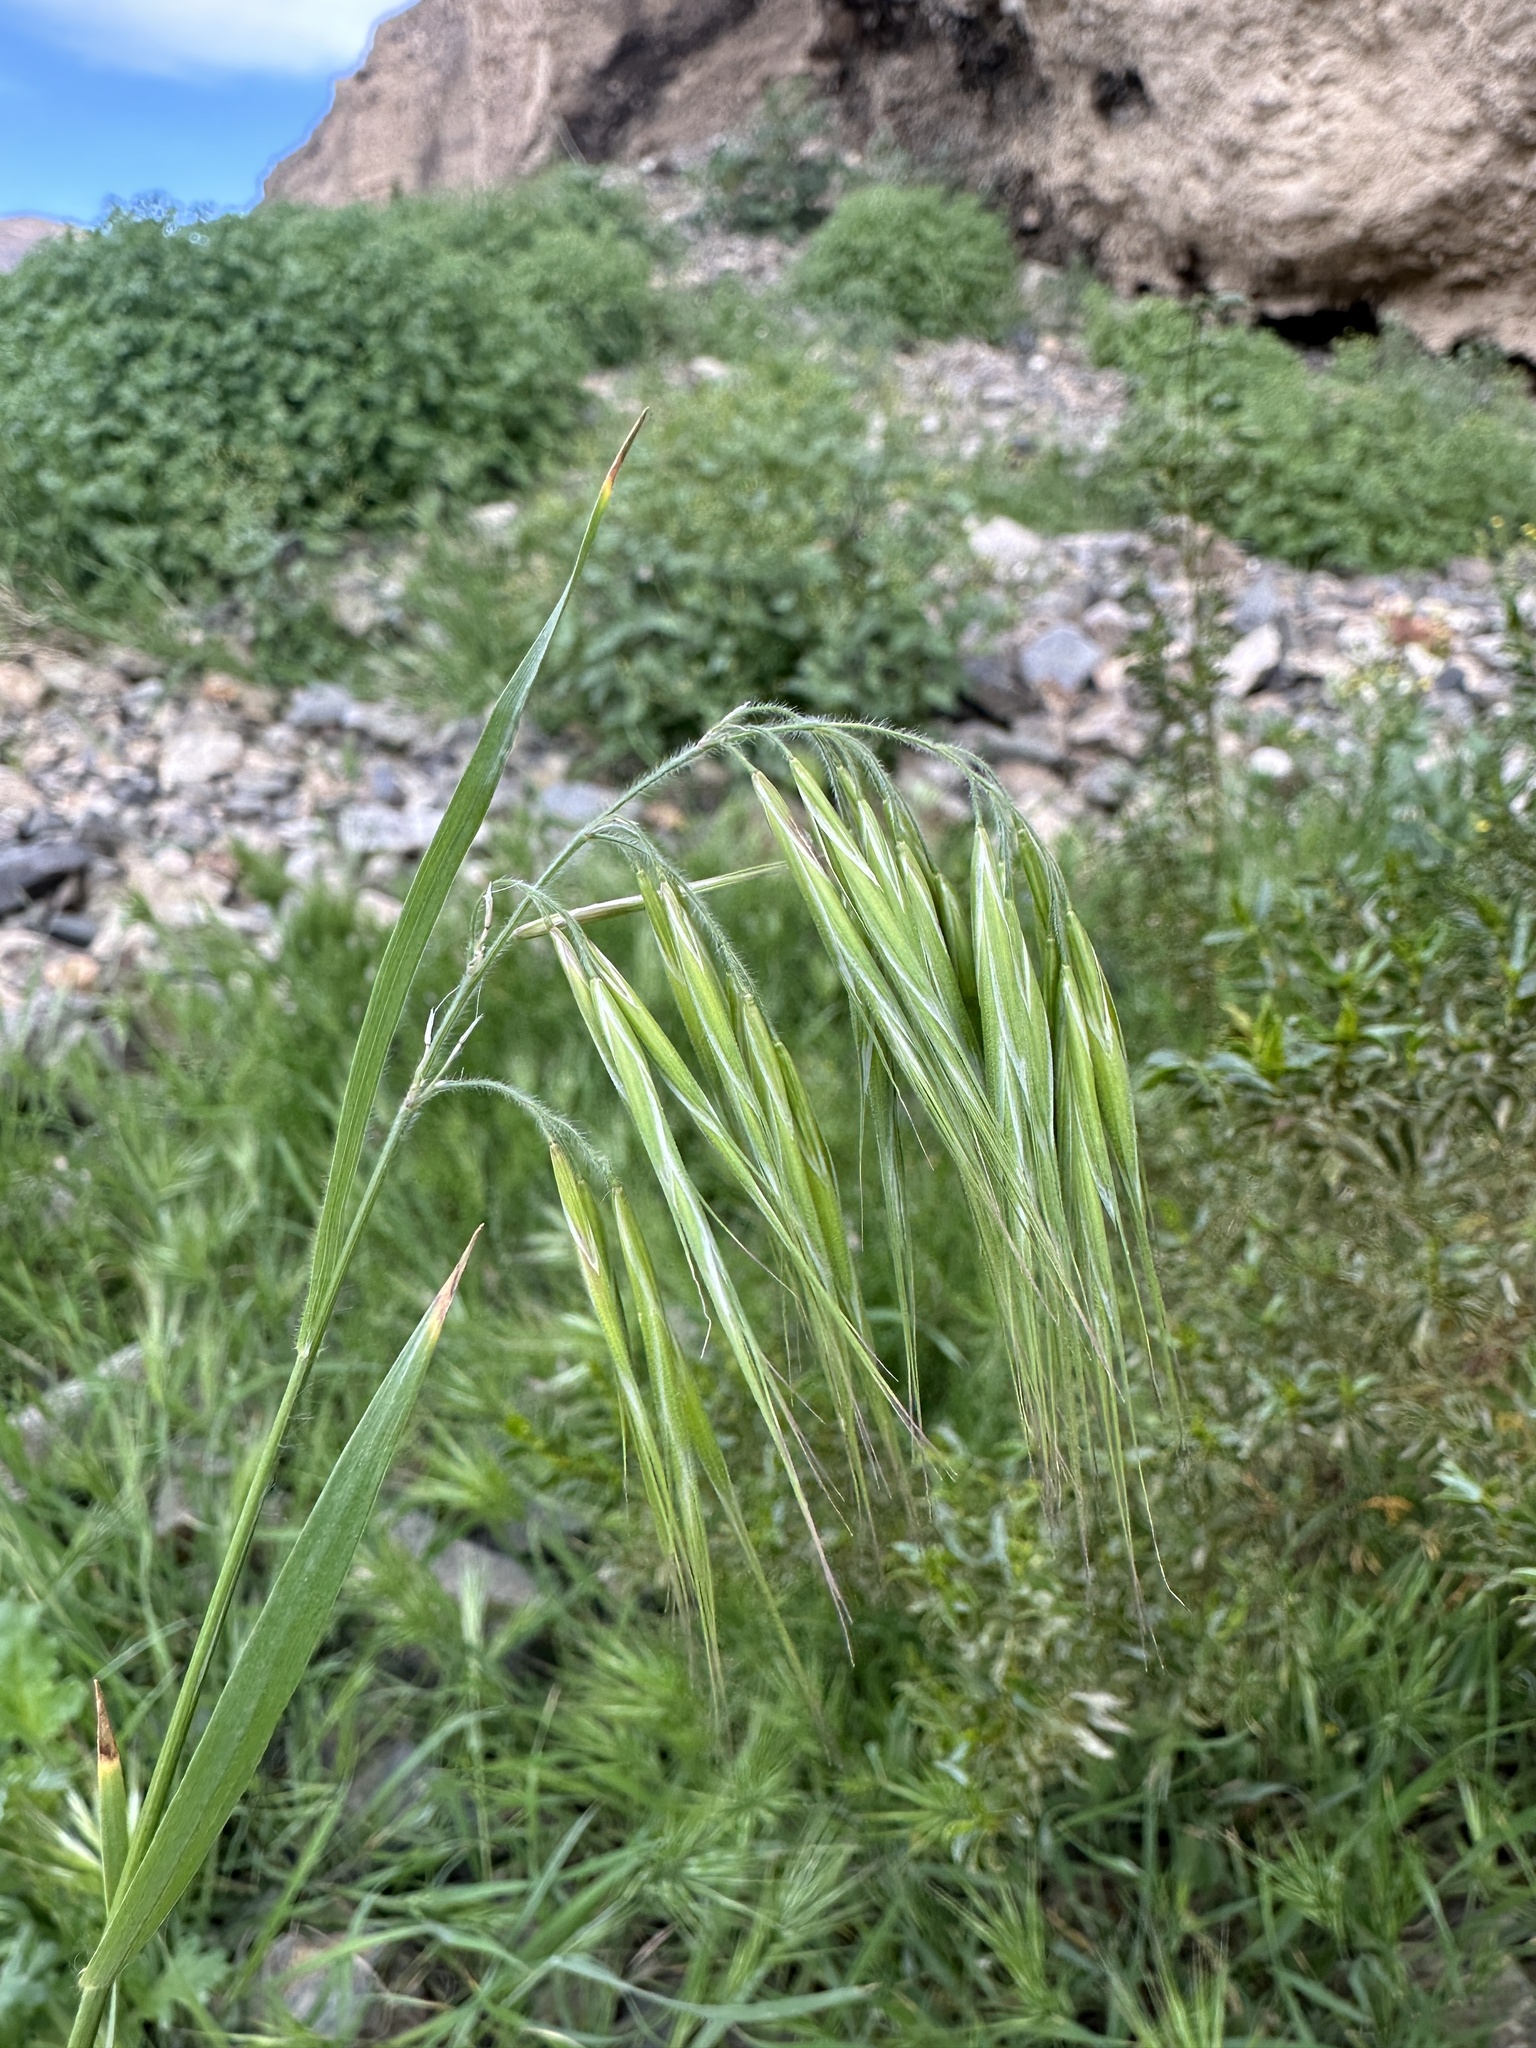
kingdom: Plantae
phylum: Tracheophyta
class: Liliopsida
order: Poales
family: Poaceae
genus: Bromus
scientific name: Bromus tectorum
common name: Cheatgrass
